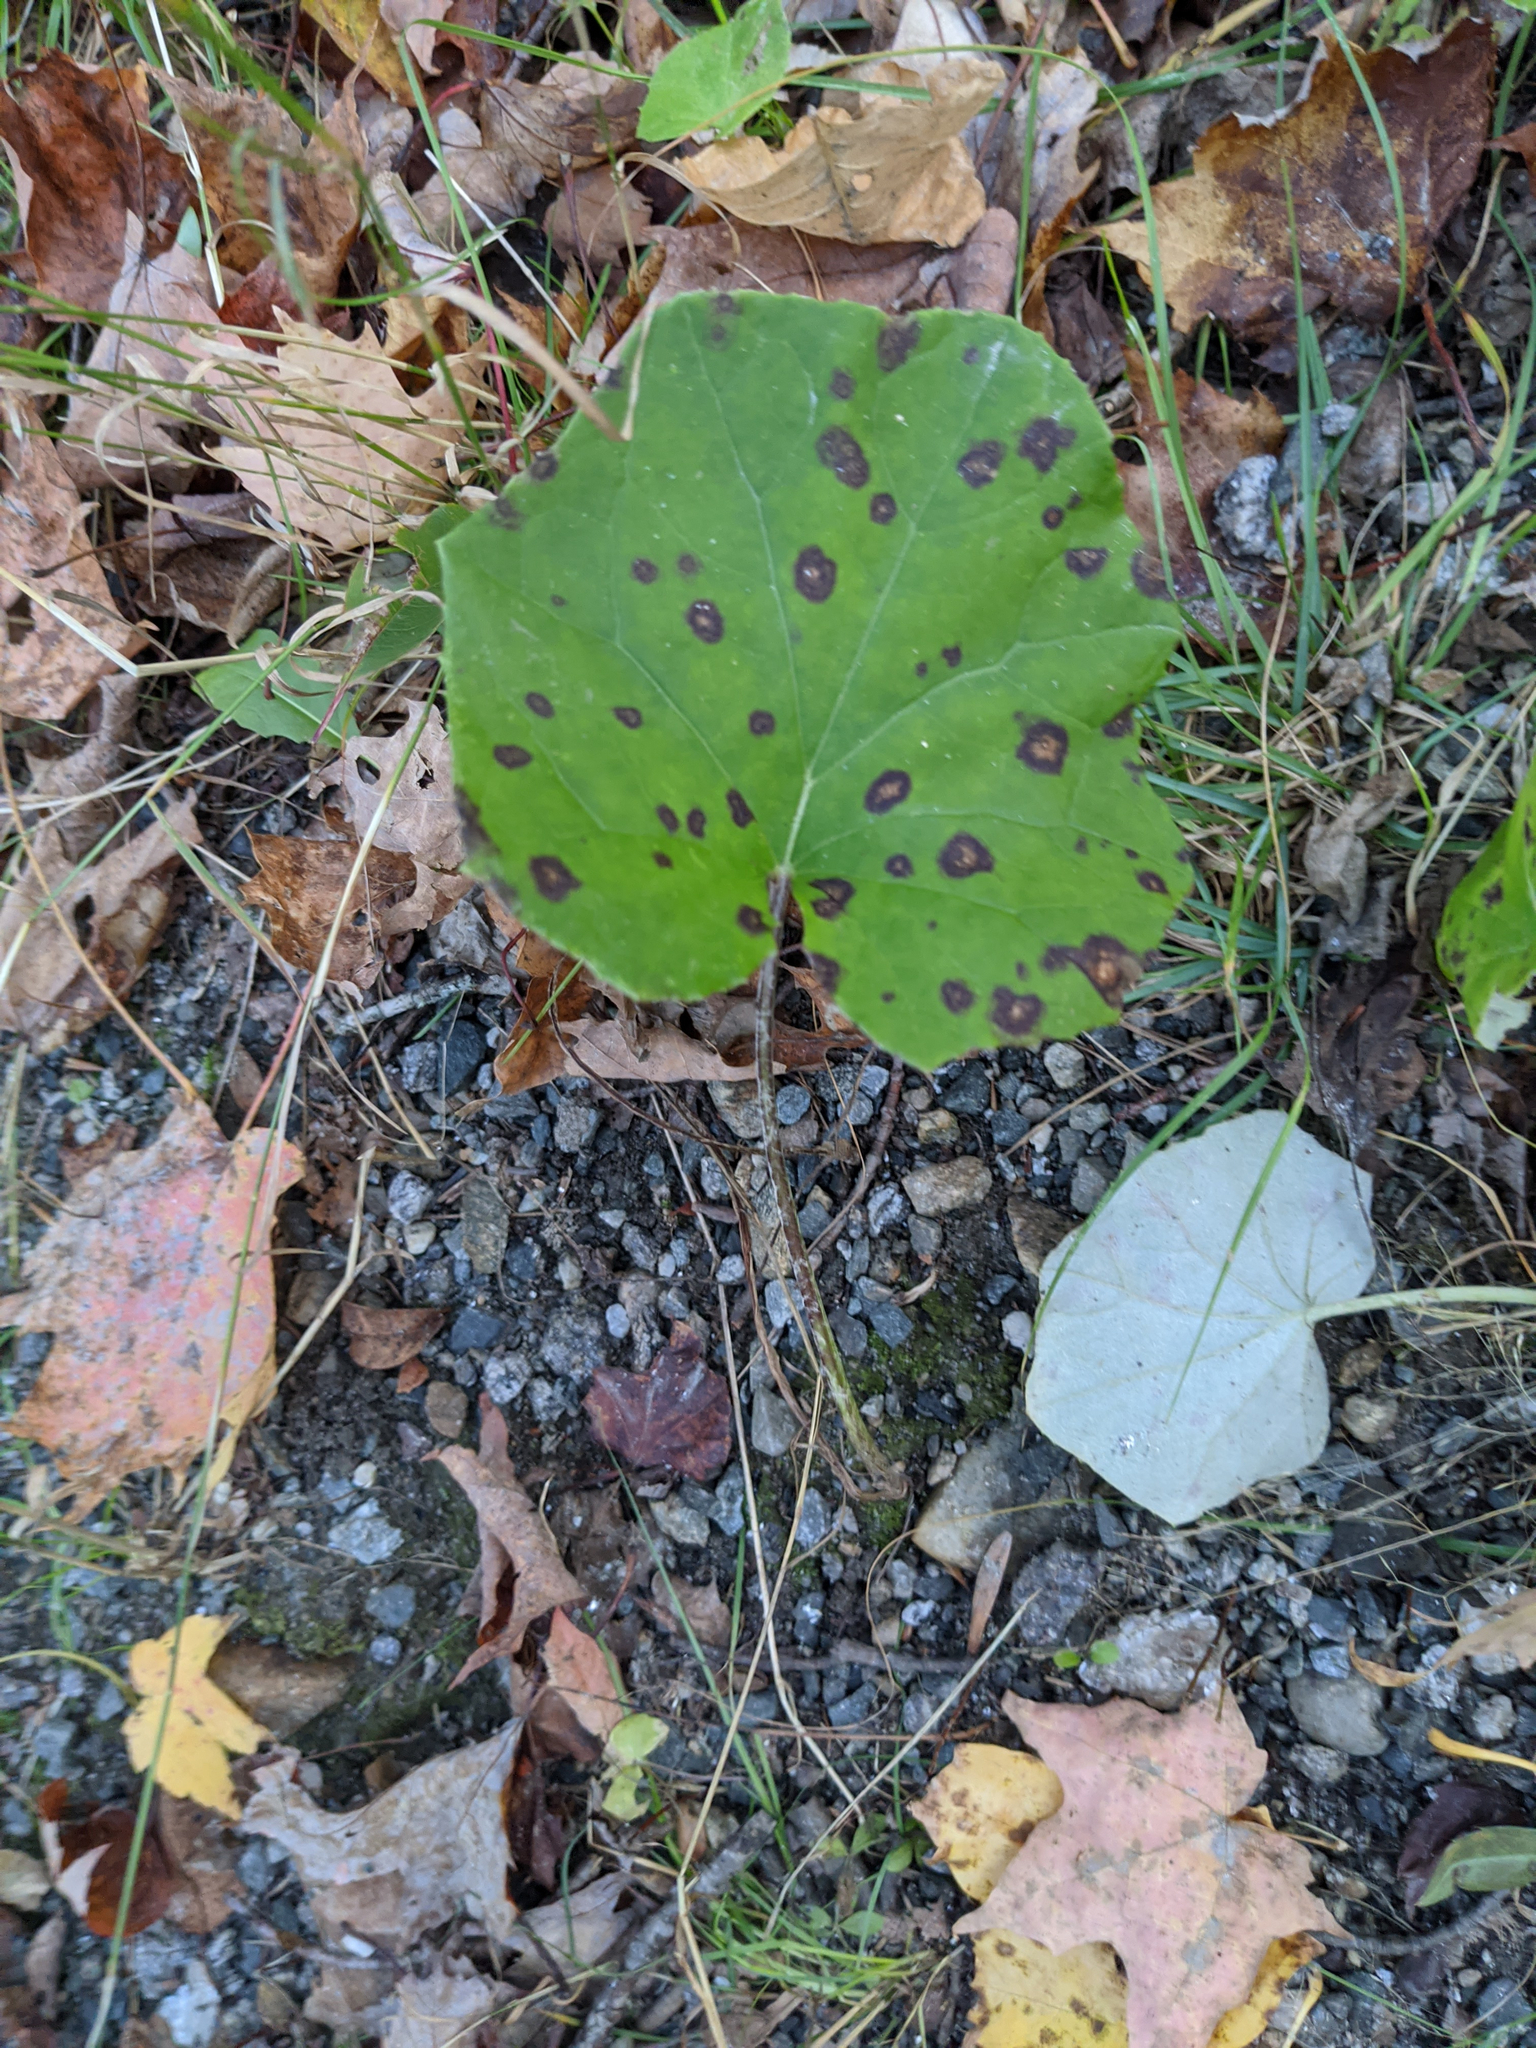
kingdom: Plantae
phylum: Tracheophyta
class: Magnoliopsida
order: Asterales
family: Asteraceae
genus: Tussilago
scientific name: Tussilago farfara
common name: Coltsfoot
